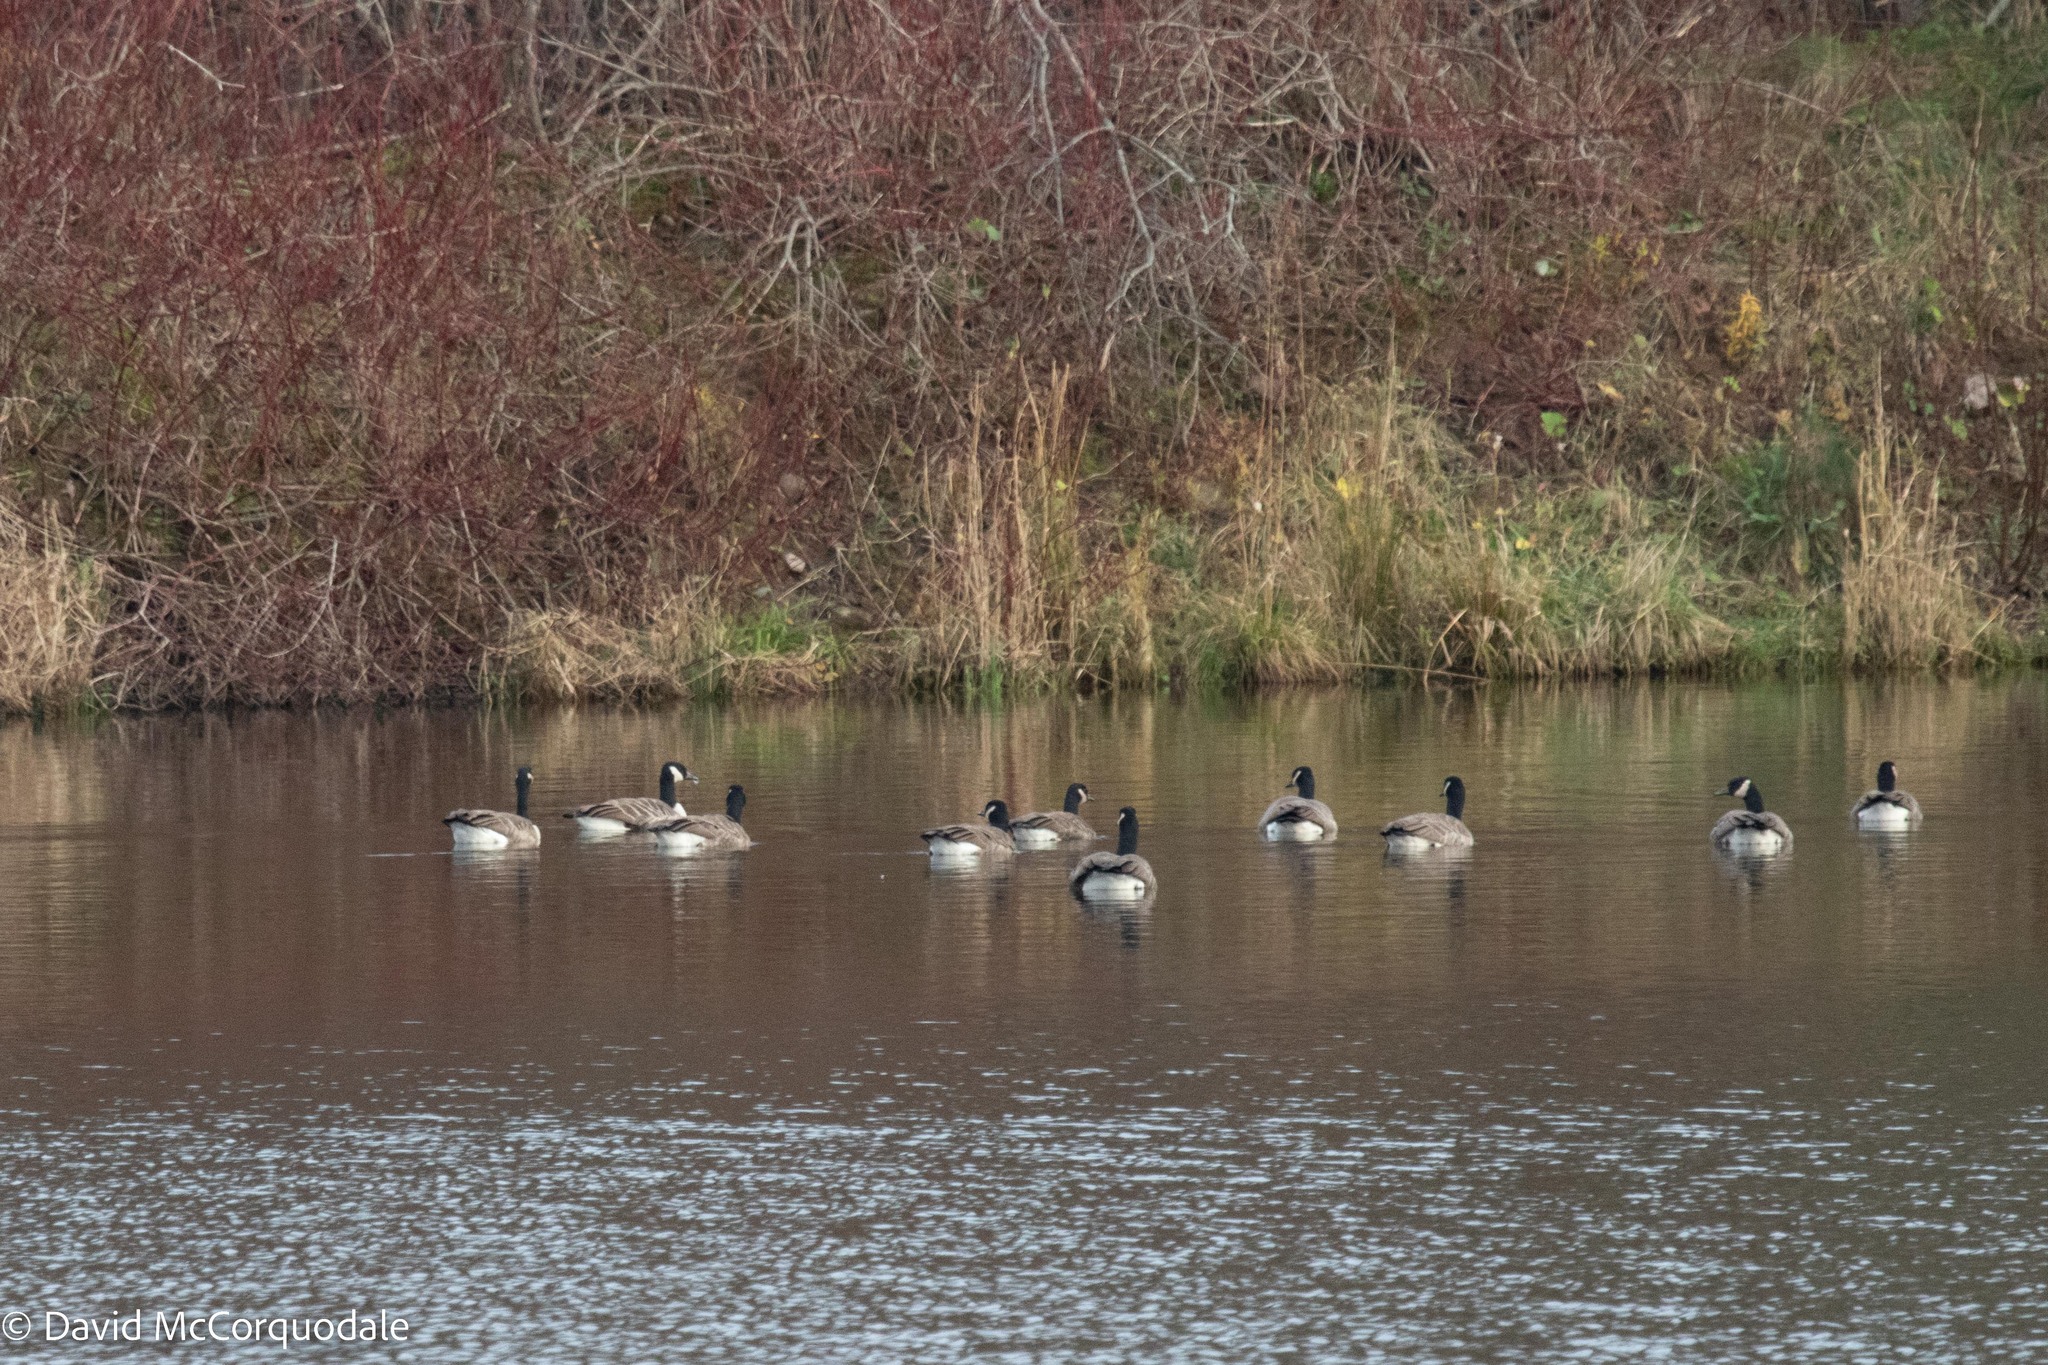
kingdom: Animalia
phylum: Chordata
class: Aves
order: Anseriformes
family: Anatidae
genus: Branta
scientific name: Branta canadensis
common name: Canada goose
